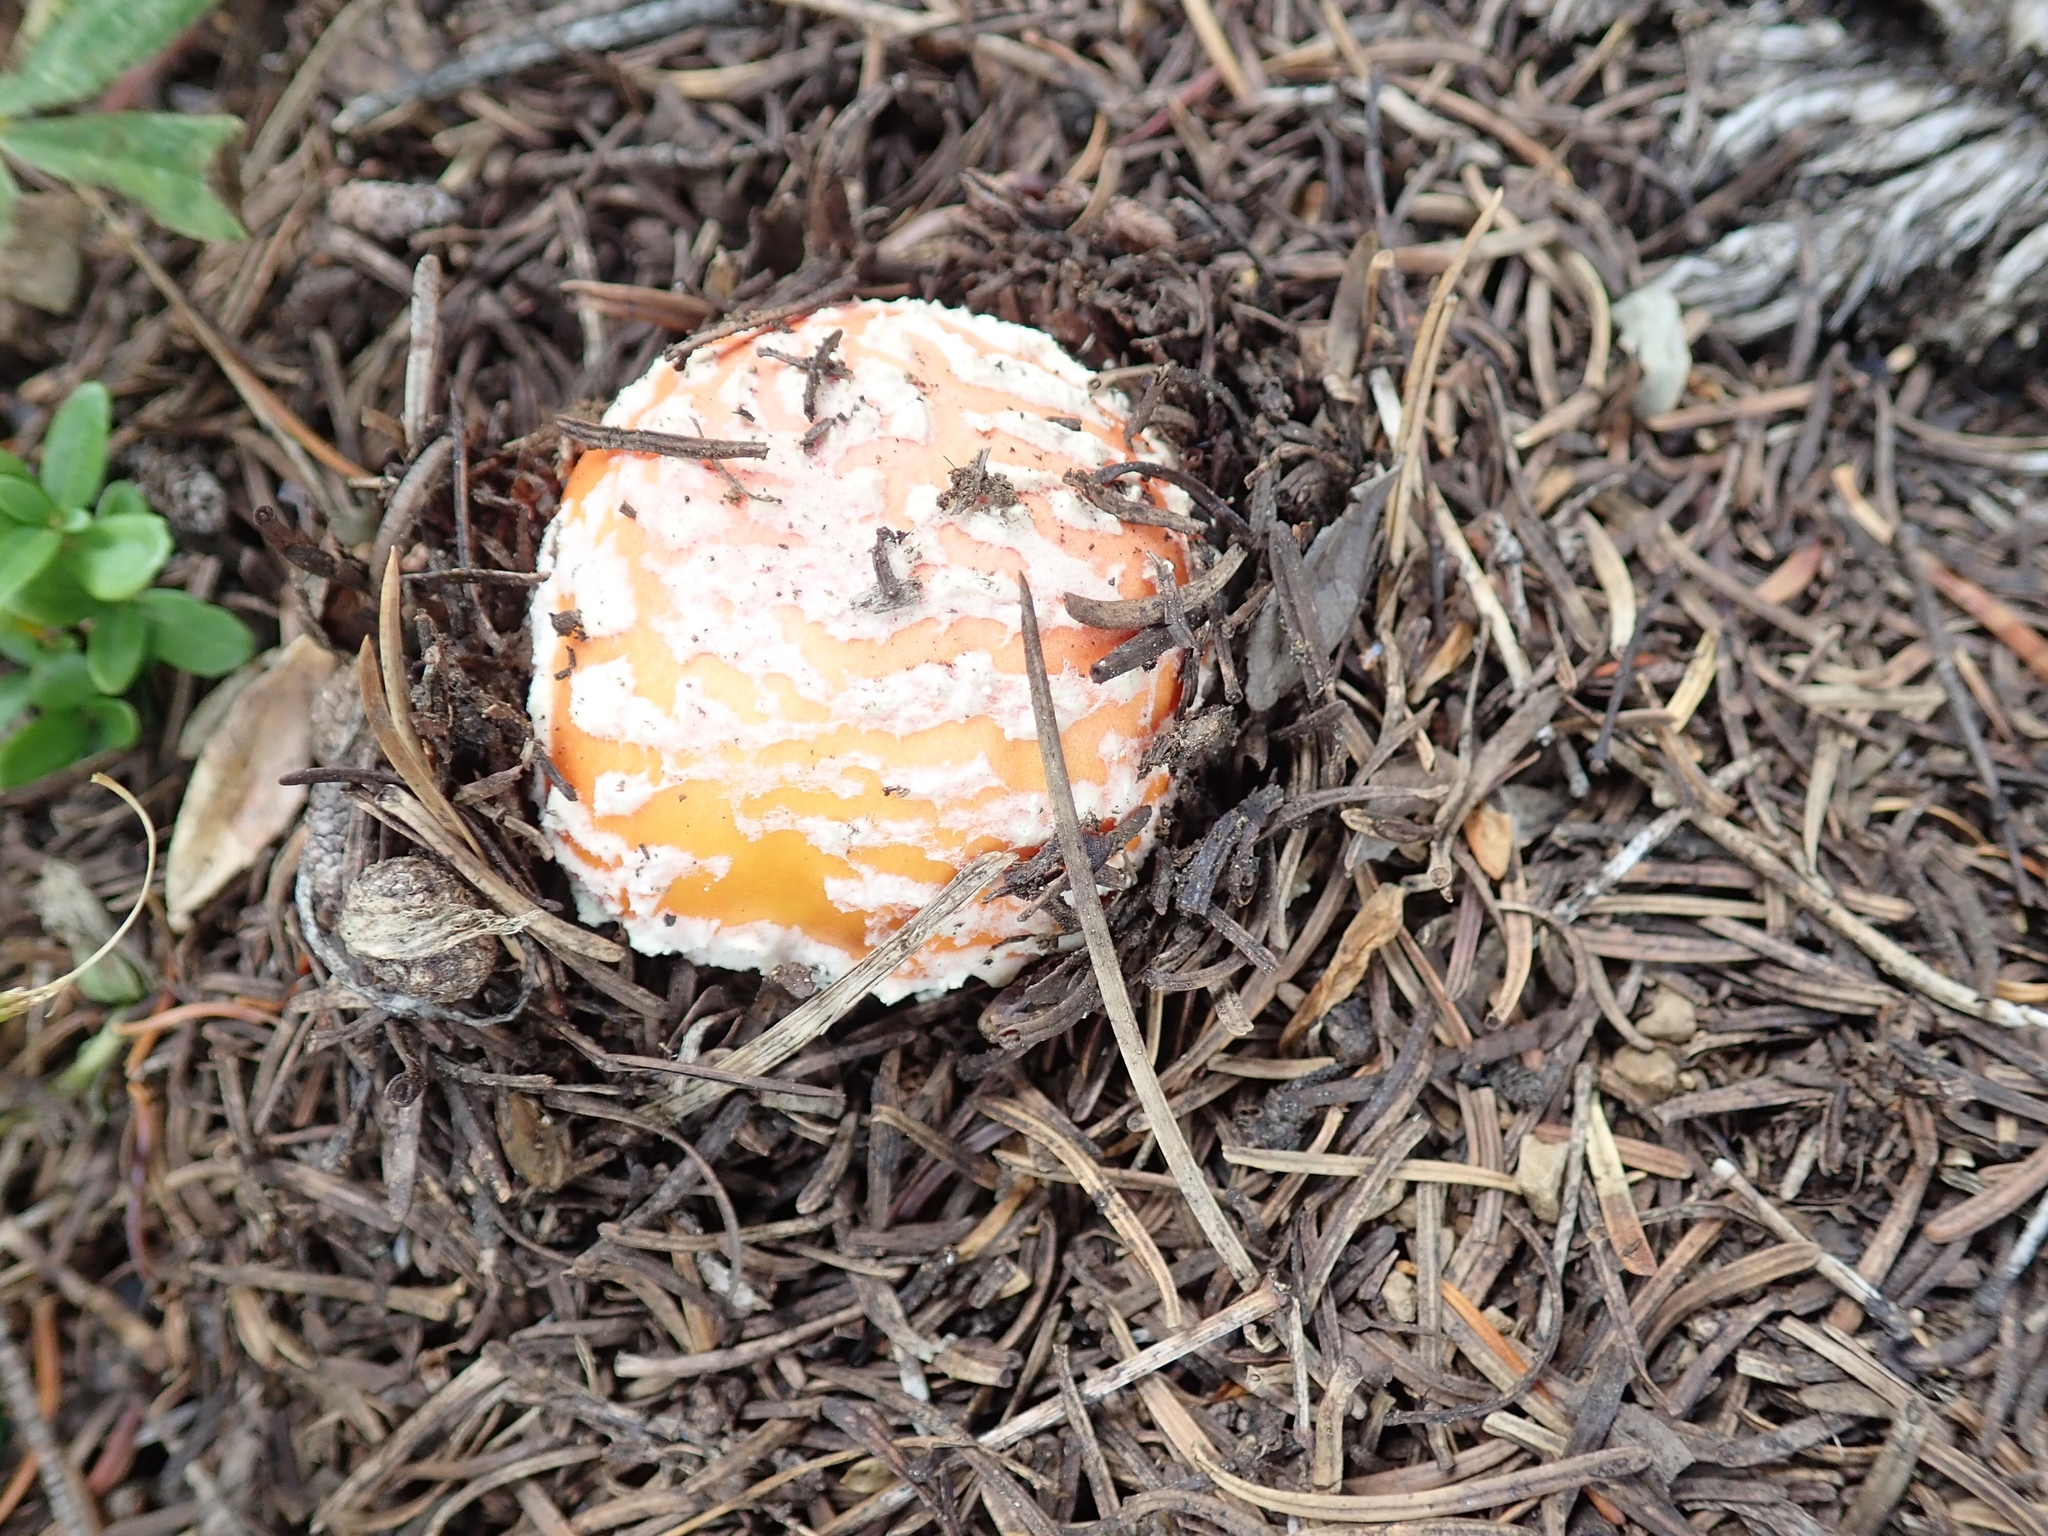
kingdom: Fungi
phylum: Basidiomycota
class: Agaricomycetes
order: Agaricales
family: Amanitaceae
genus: Amanita
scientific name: Amanita muscaria
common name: Fly agaric
